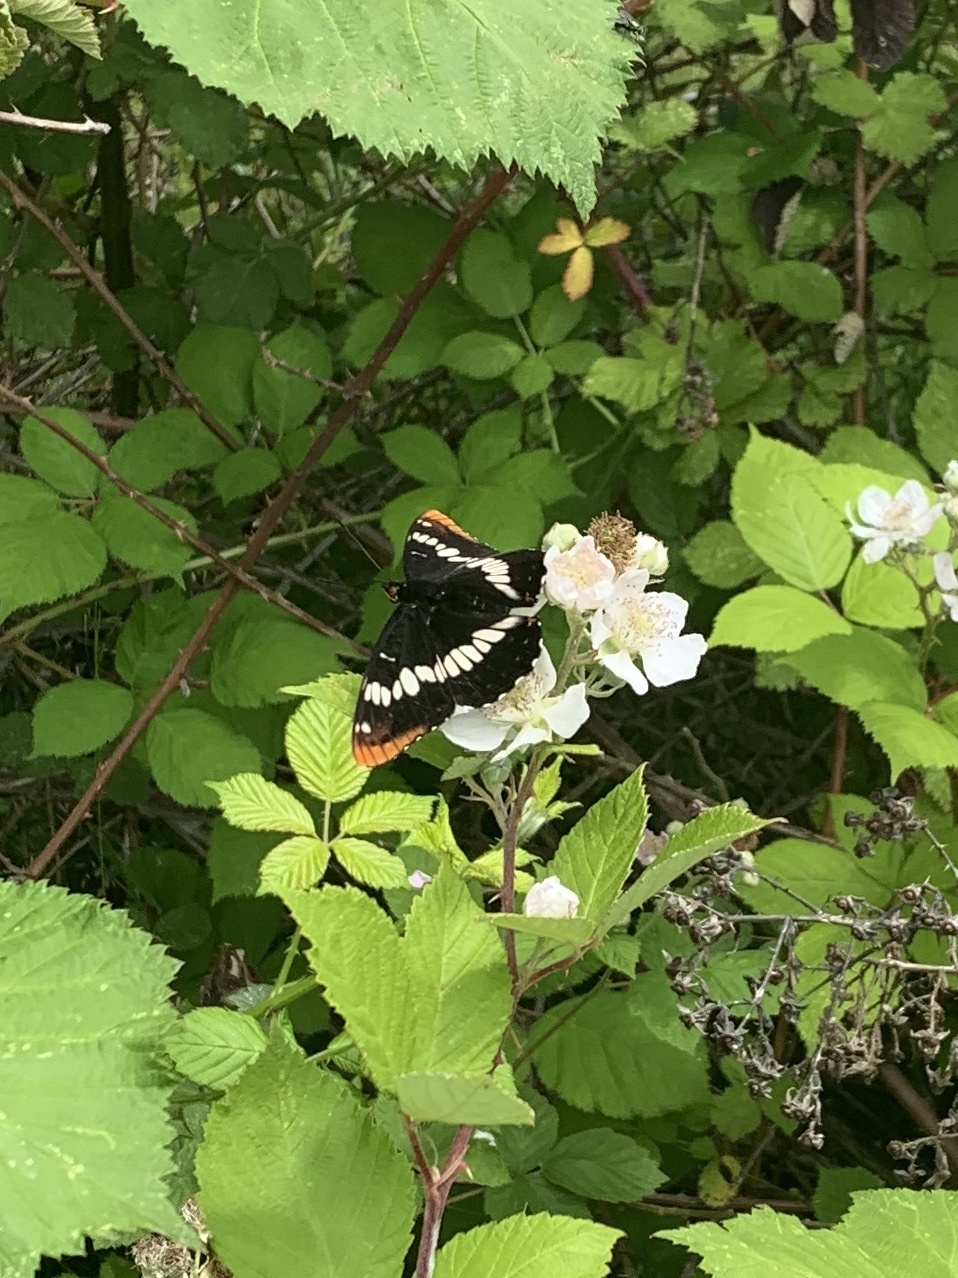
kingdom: Animalia
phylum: Arthropoda
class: Insecta
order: Lepidoptera
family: Nymphalidae
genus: Limenitis
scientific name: Limenitis lorquini
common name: Lorquin's admiral
